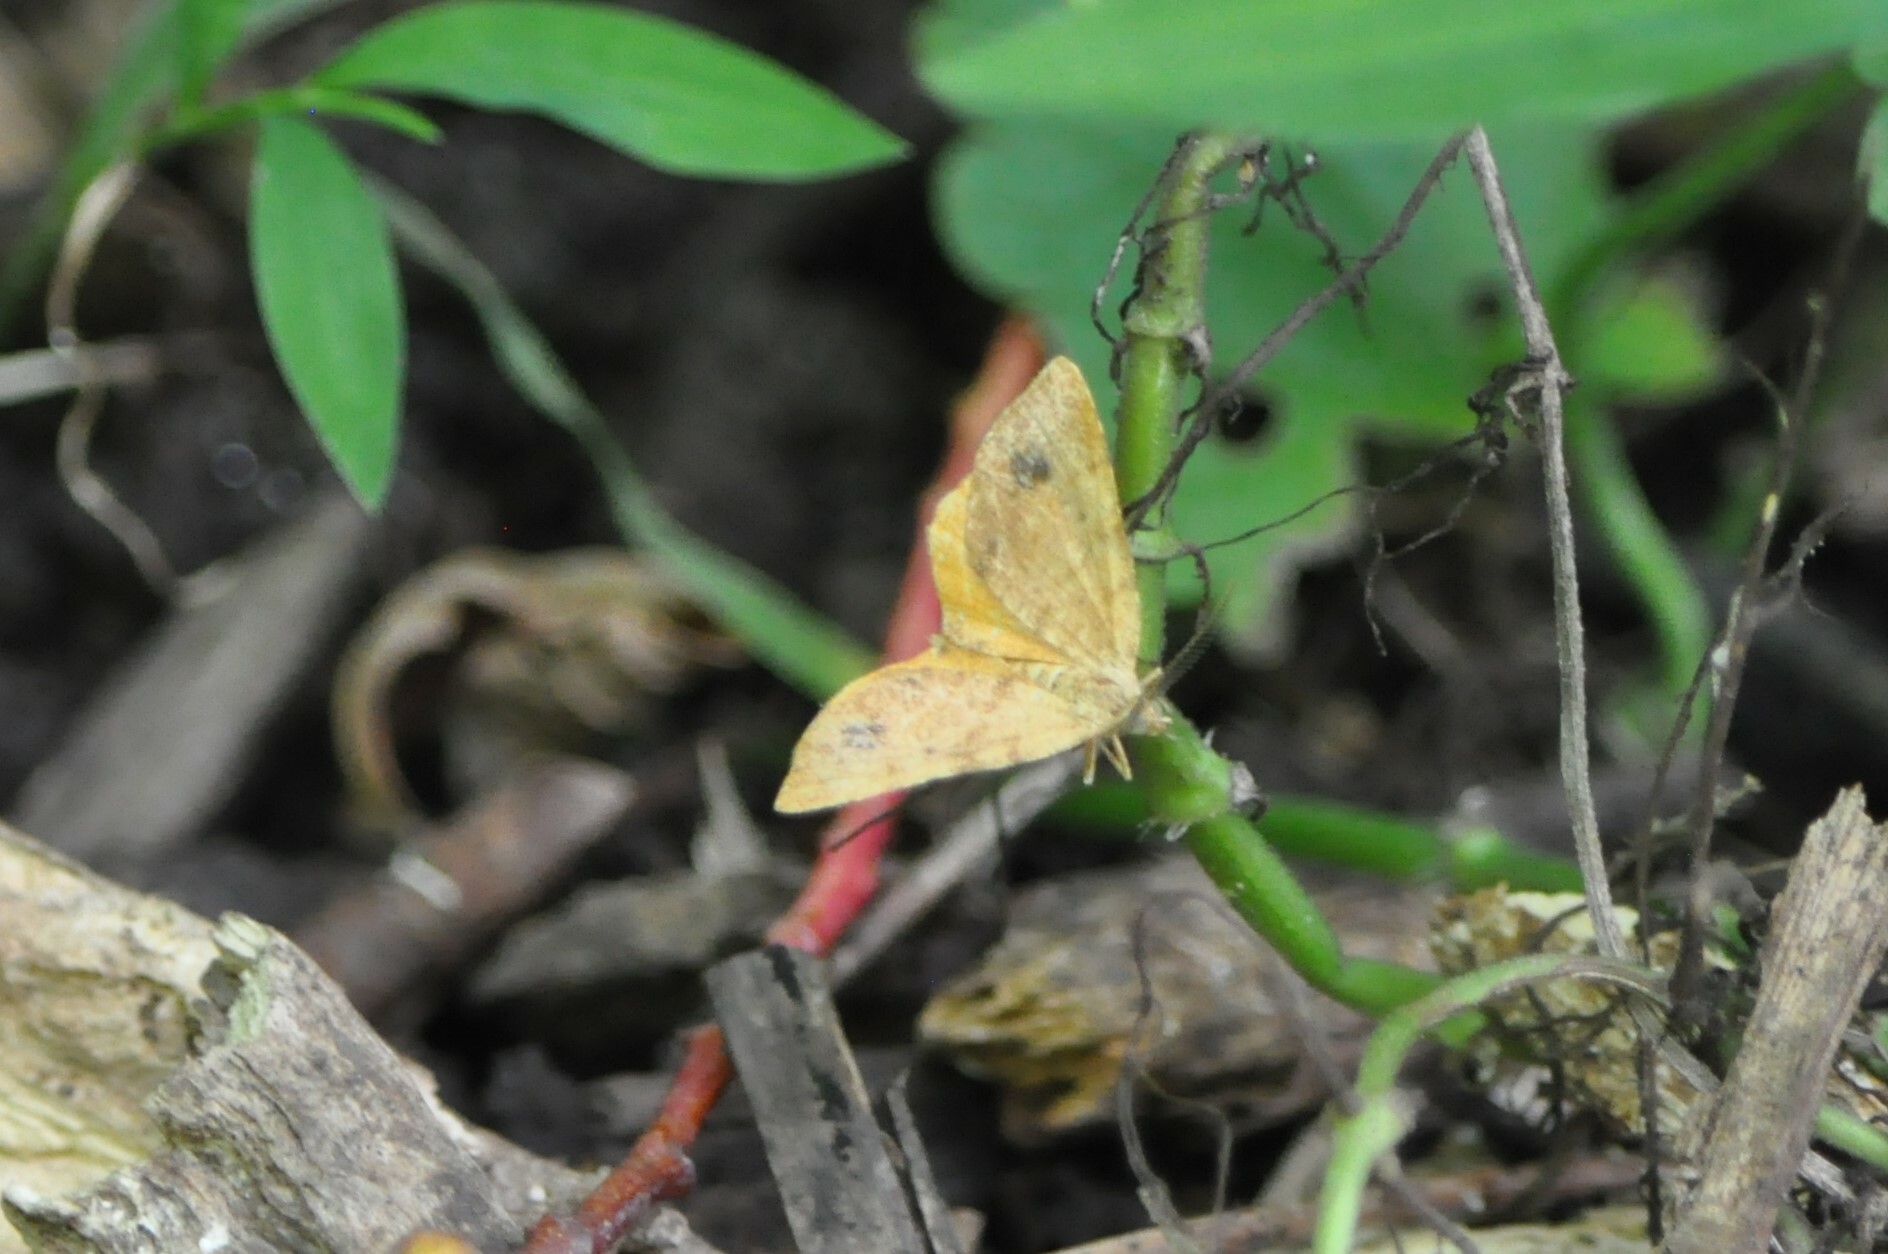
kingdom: Animalia
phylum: Arthropoda
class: Insecta
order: Lepidoptera
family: Geometridae
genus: Mellilla
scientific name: Mellilla xanthometata
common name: Orange wing moth
